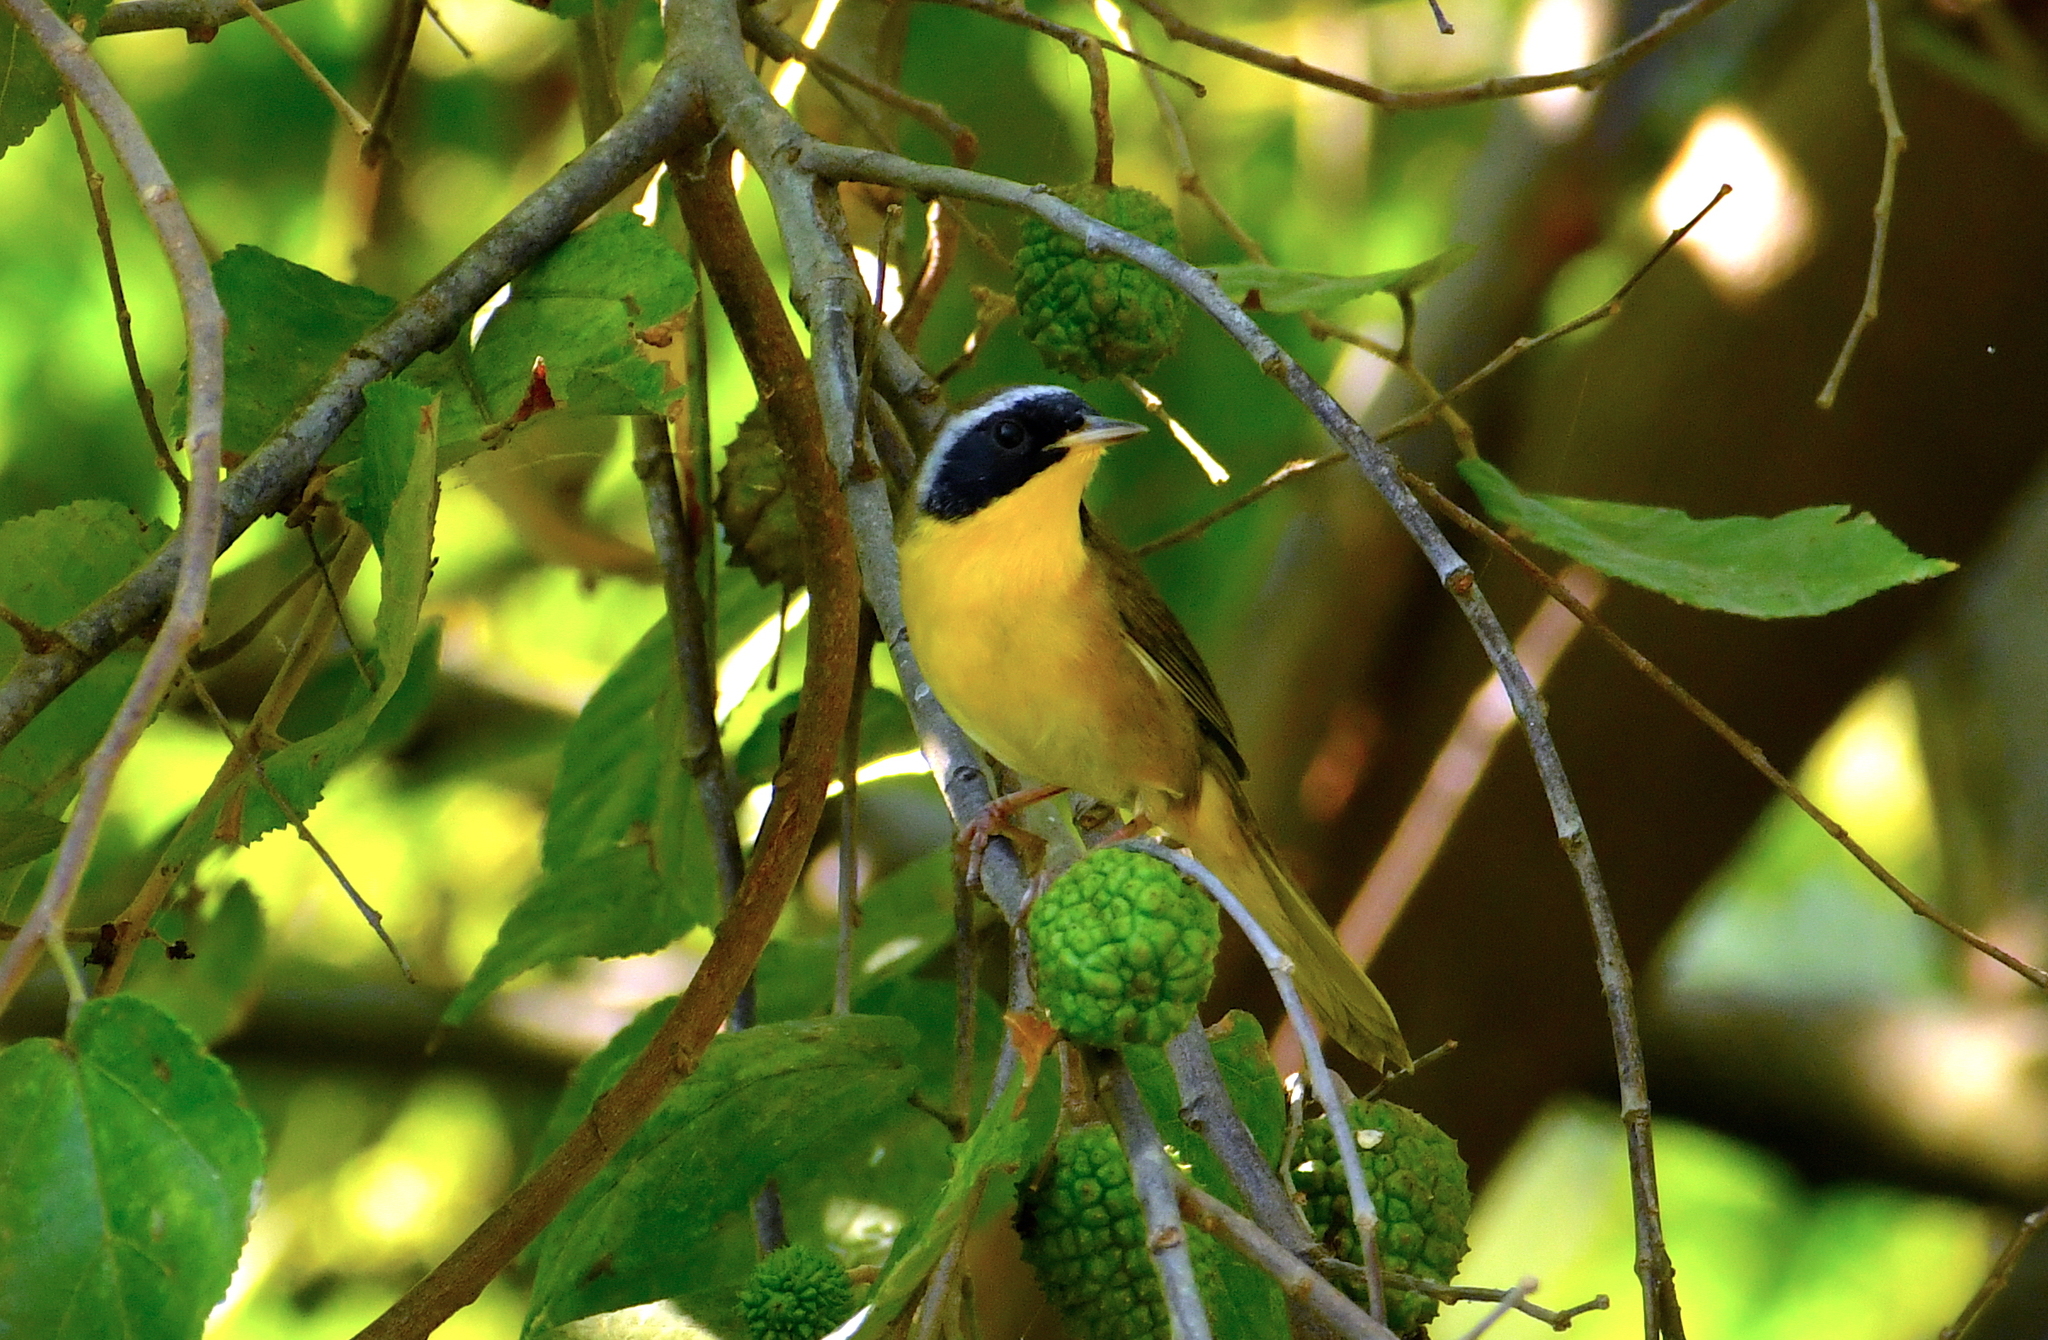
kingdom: Animalia
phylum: Chordata
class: Aves
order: Passeriformes
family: Parulidae
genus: Geothlypis
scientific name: Geothlypis trichas
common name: Common yellowthroat
